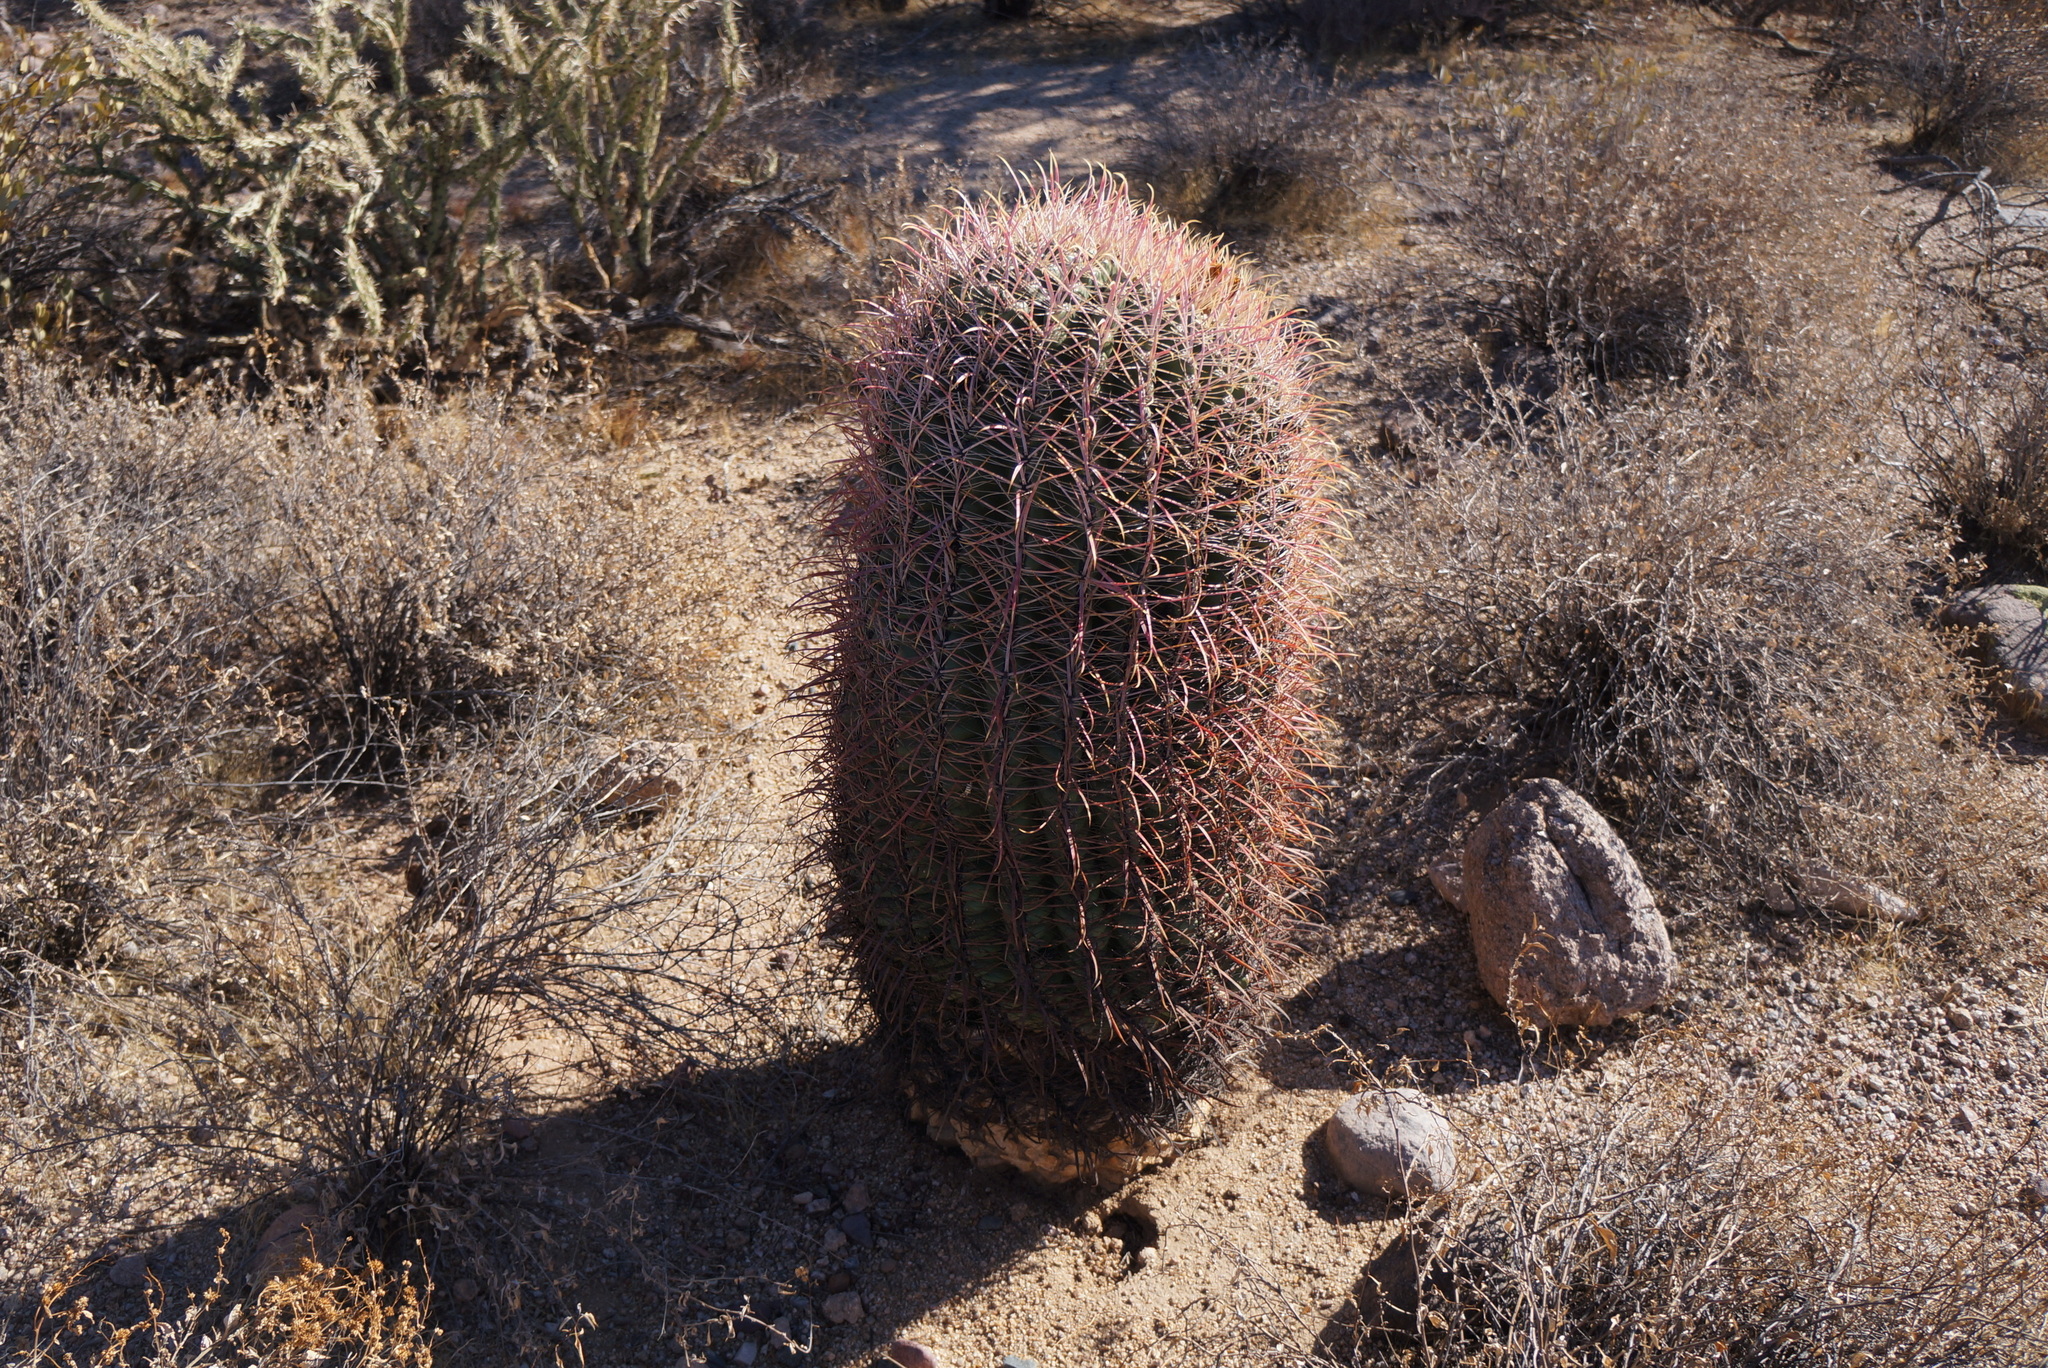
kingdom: Plantae
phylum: Tracheophyta
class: Magnoliopsida
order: Caryophyllales
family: Cactaceae
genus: Ferocactus
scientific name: Ferocactus cylindraceus
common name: California barrel cactus
